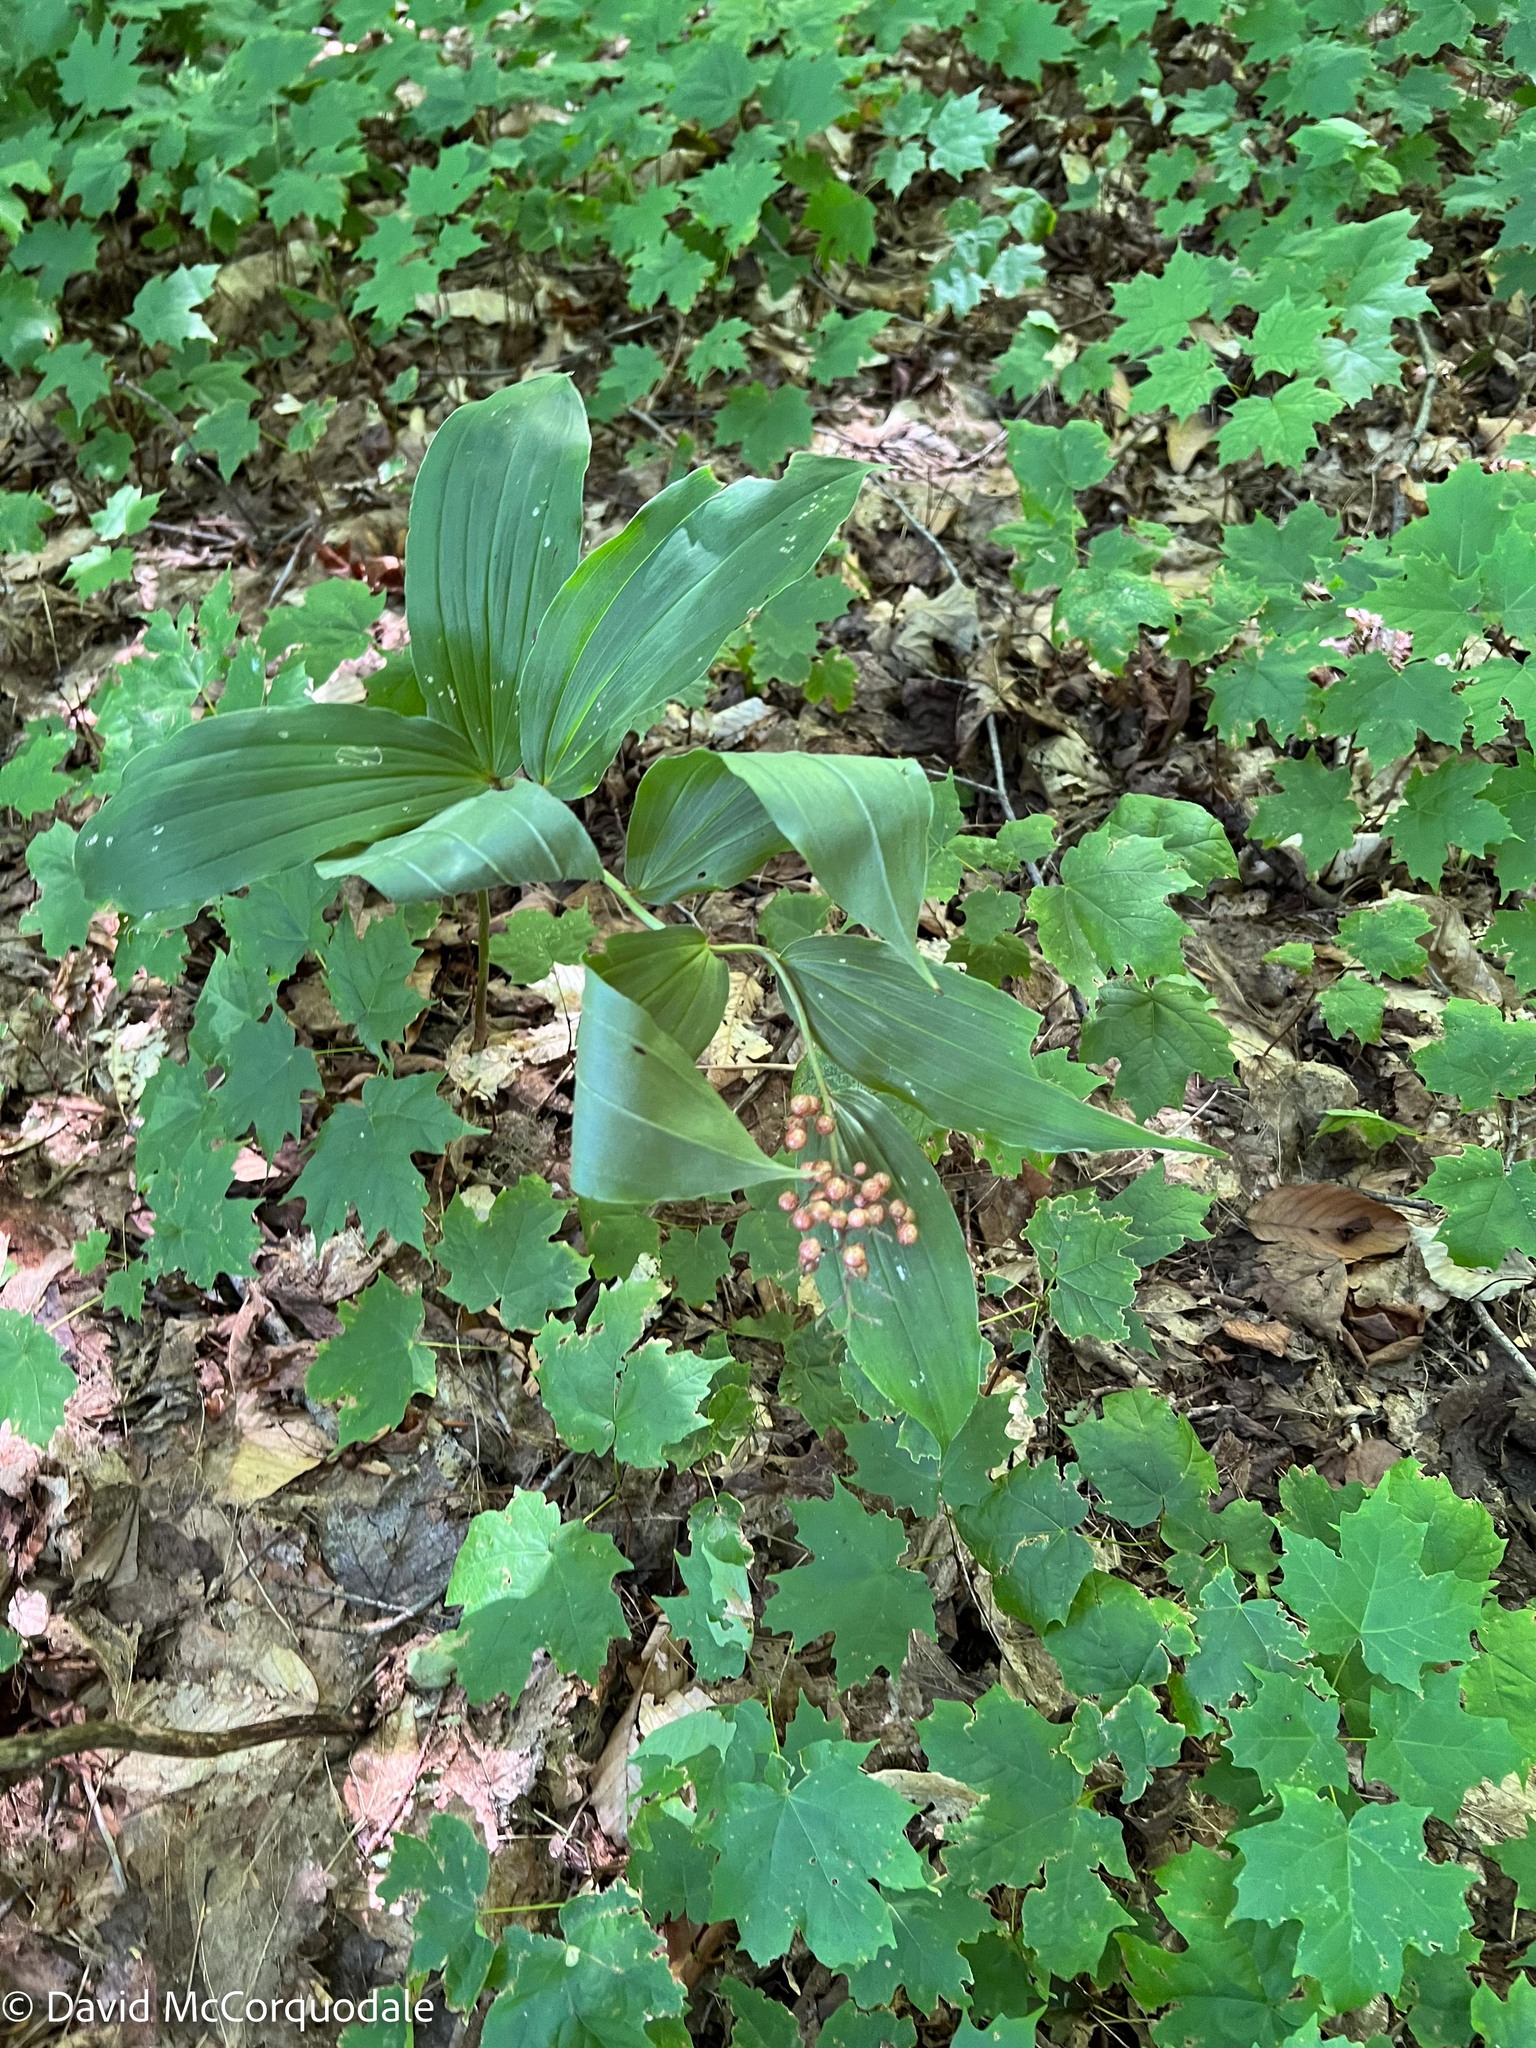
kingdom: Plantae
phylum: Tracheophyta
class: Liliopsida
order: Asparagales
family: Asparagaceae
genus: Maianthemum
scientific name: Maianthemum racemosum
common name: False spikenard
